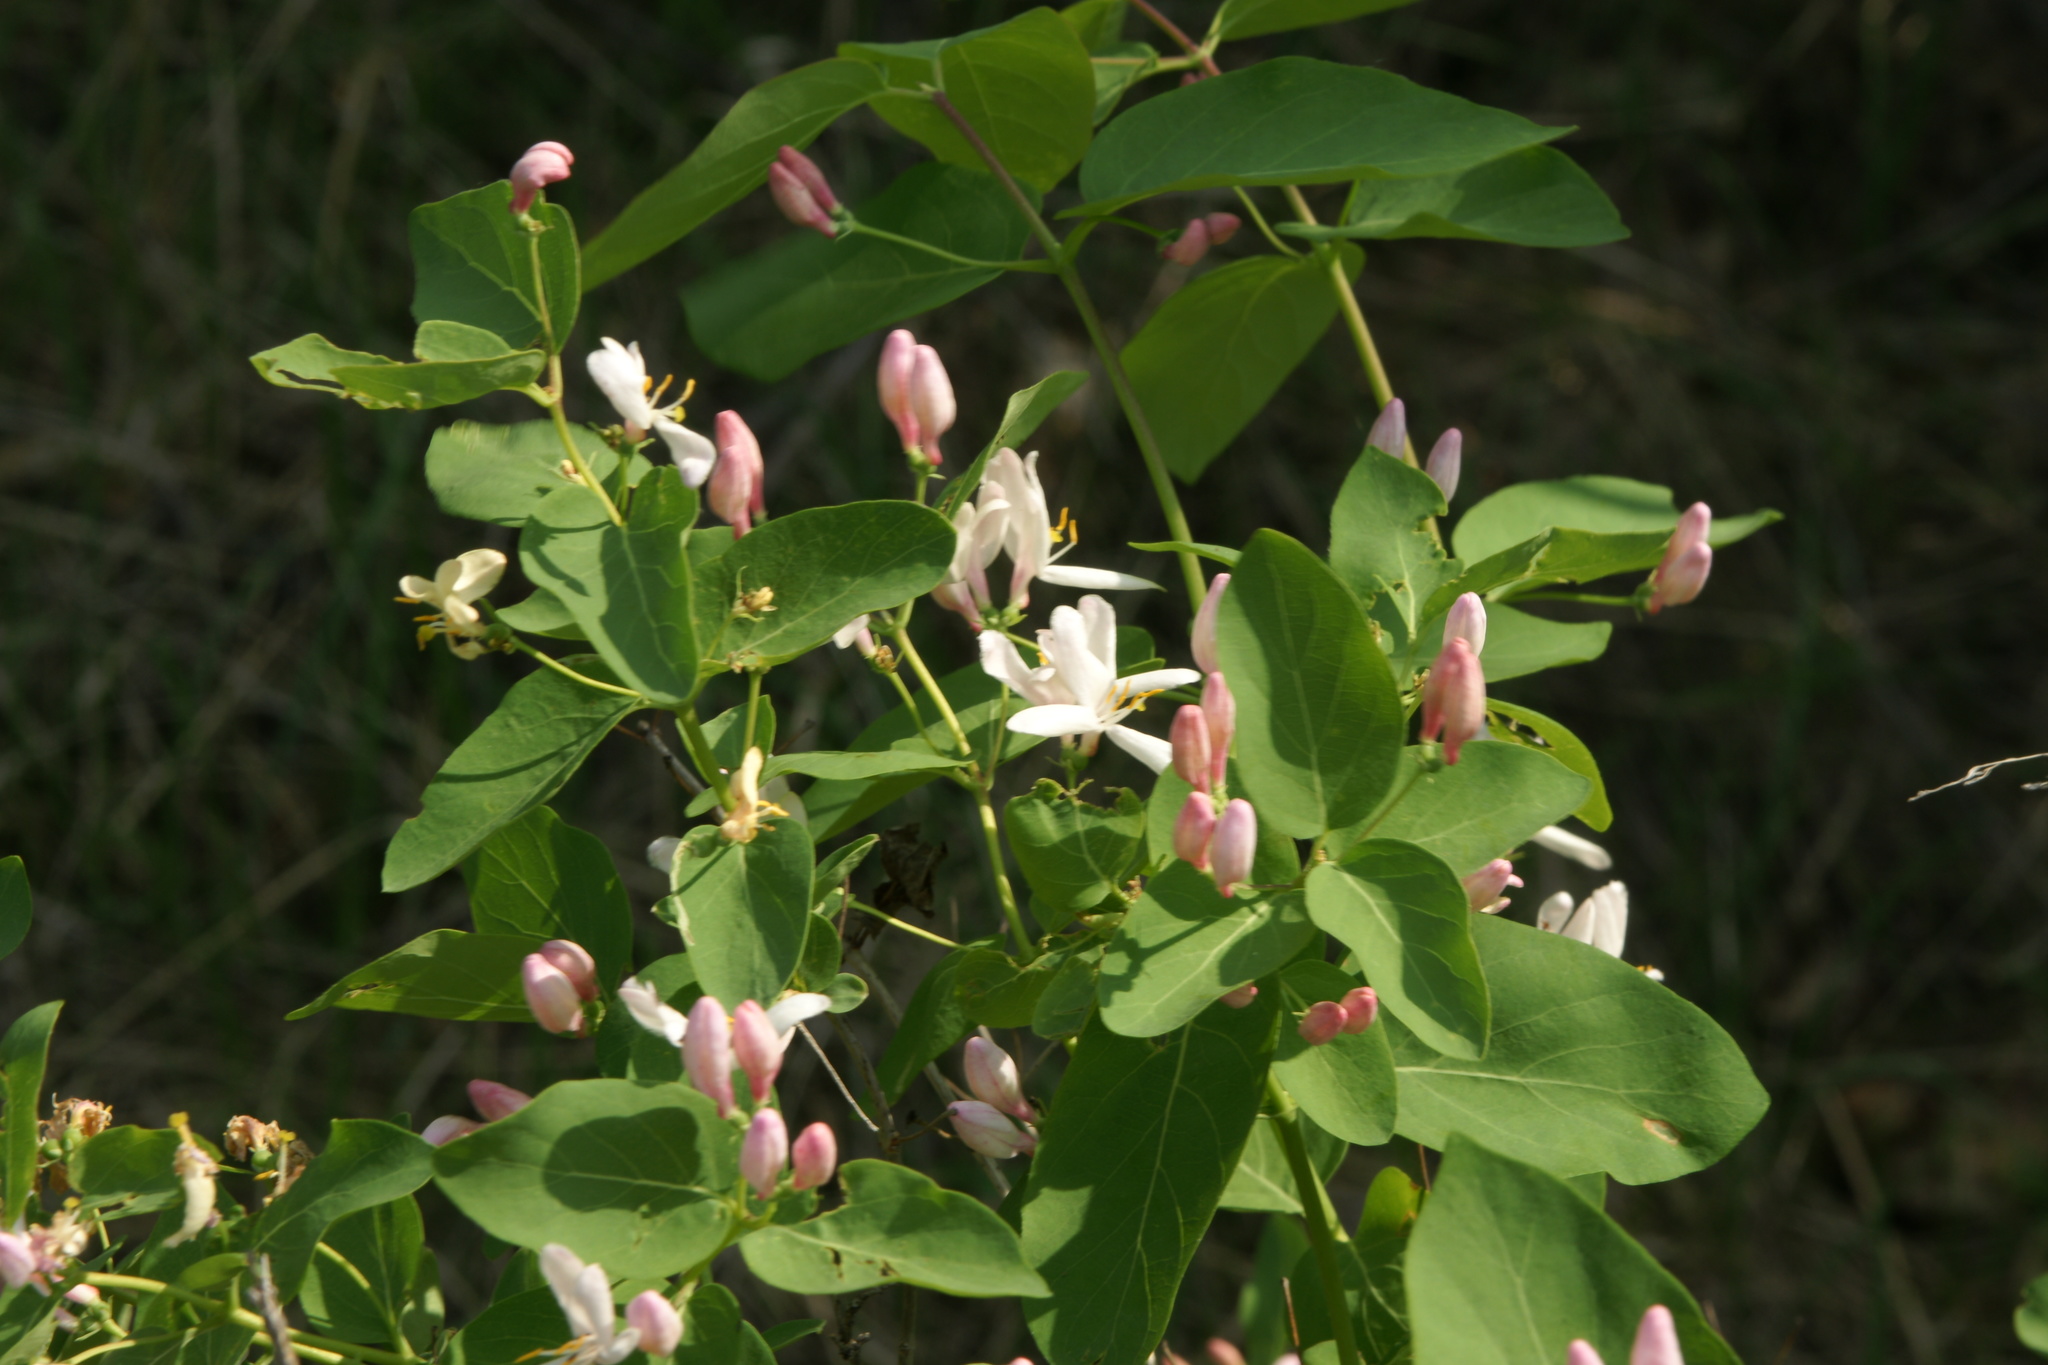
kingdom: Plantae
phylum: Tracheophyta
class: Magnoliopsida
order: Dipsacales
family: Caprifoliaceae
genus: Lonicera
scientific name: Lonicera tatarica
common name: Tatarian honeysuckle
